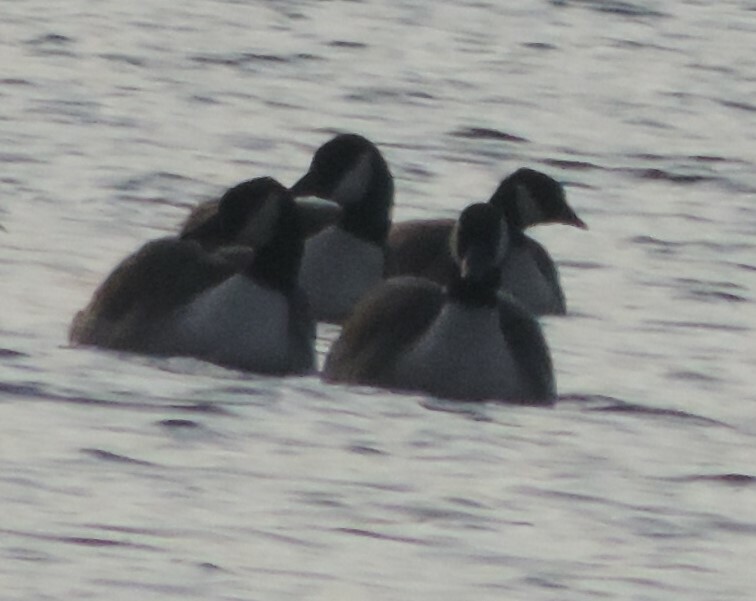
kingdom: Animalia
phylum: Chordata
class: Aves
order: Anseriformes
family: Anatidae
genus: Branta
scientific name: Branta canadensis
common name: Canada goose
